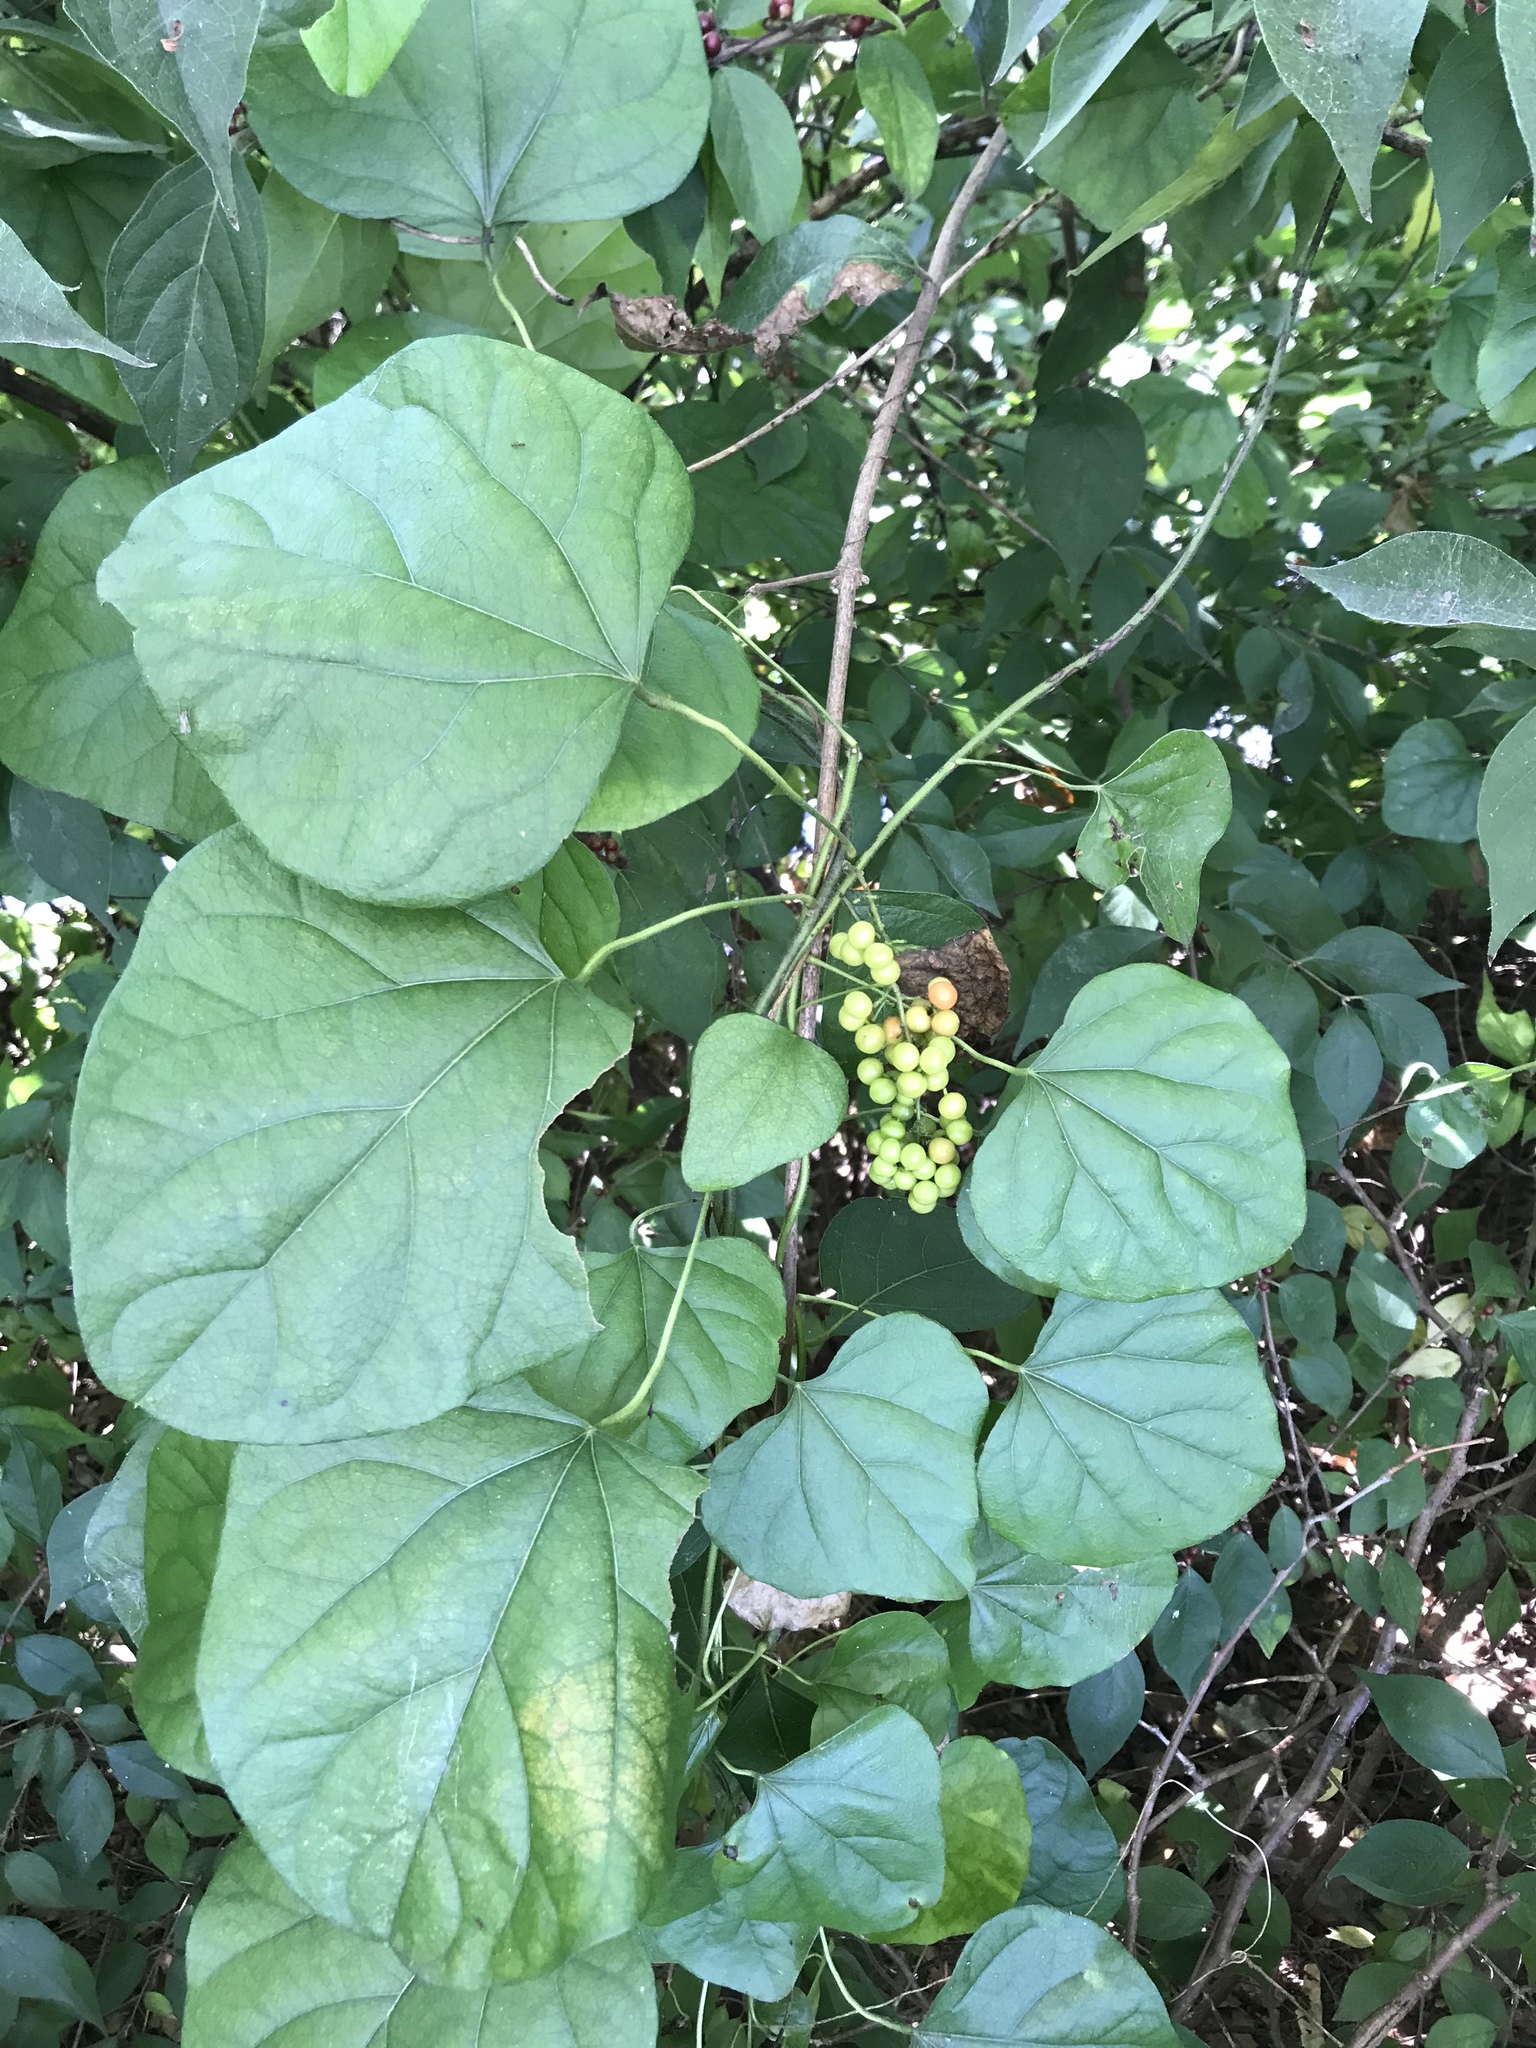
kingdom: Plantae
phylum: Tracheophyta
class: Magnoliopsida
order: Ranunculales
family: Menispermaceae
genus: Cocculus
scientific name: Cocculus carolinus
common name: Carolina moonseed
